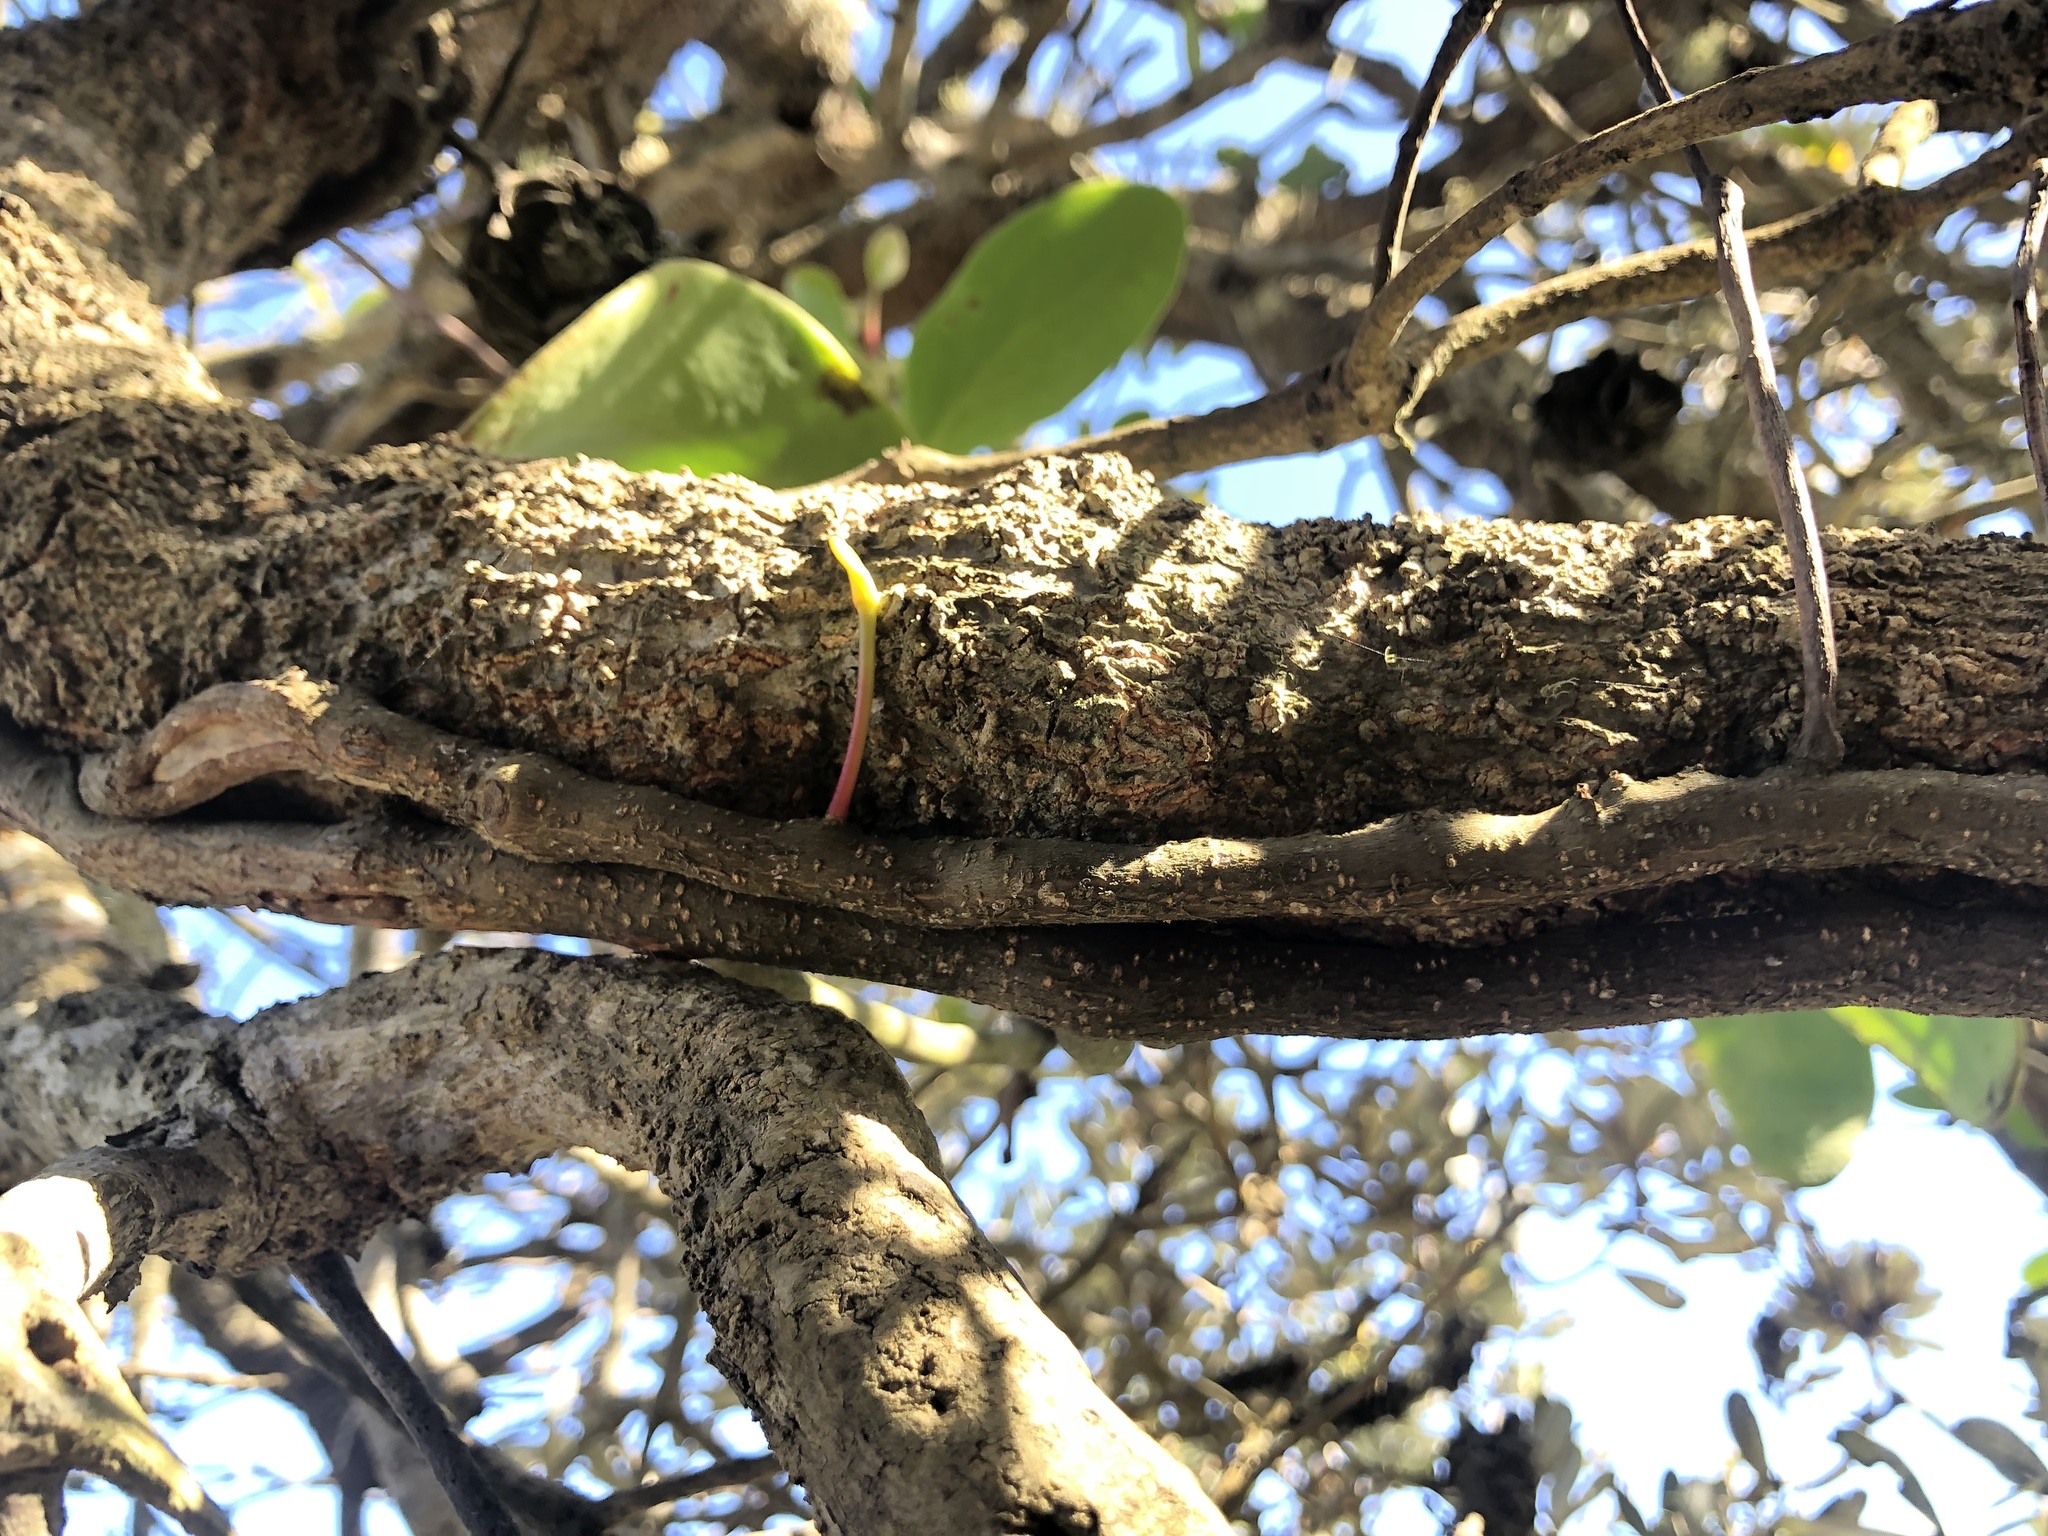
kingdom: Plantae
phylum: Tracheophyta
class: Magnoliopsida
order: Santalales
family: Loranthaceae
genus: Muellerina
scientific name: Muellerina celastroides
